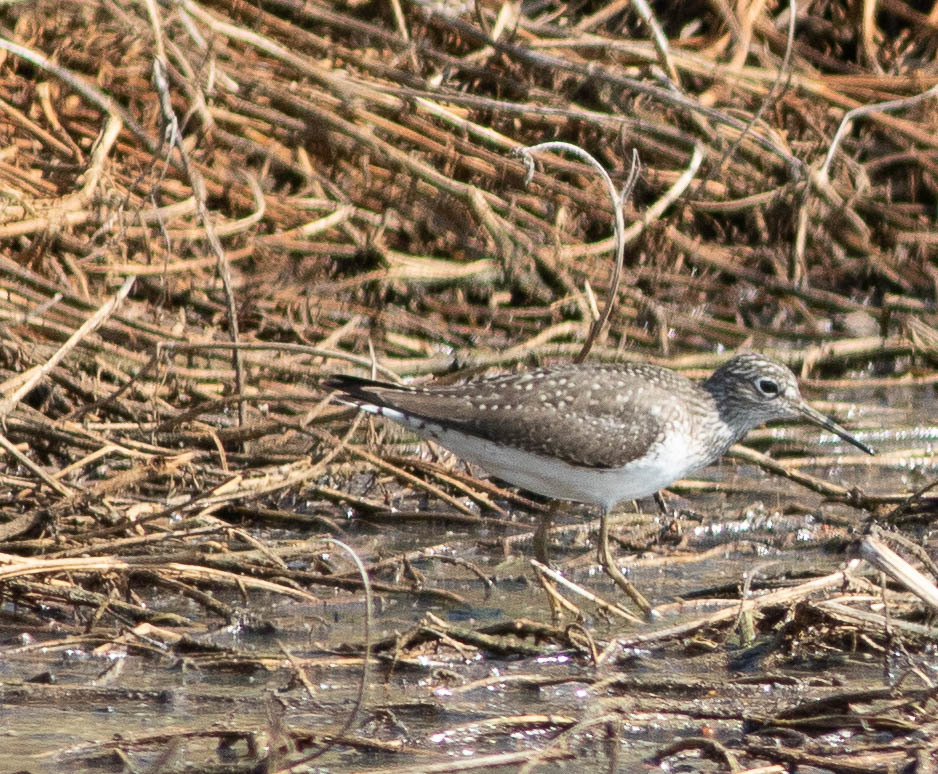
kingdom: Animalia
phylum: Chordata
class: Aves
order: Charadriiformes
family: Scolopacidae
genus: Tringa
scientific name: Tringa solitaria
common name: Solitary sandpiper
